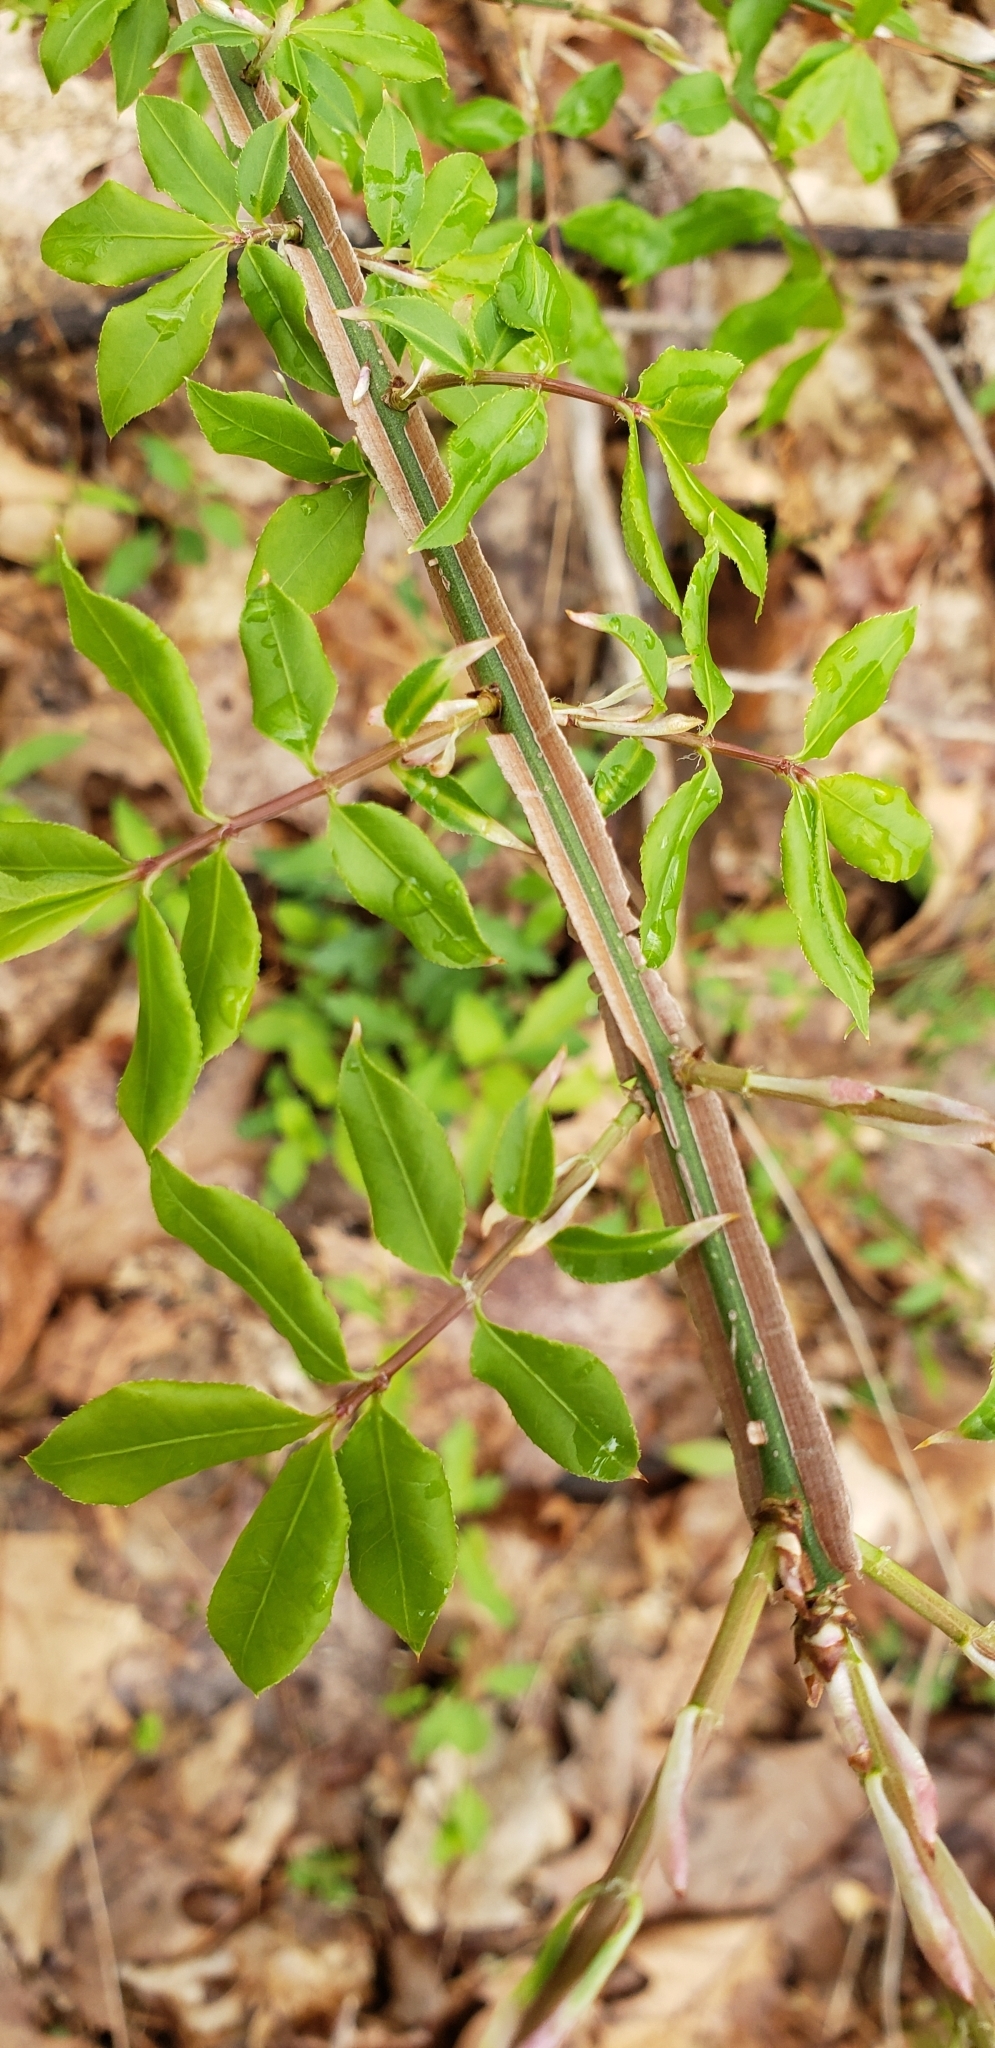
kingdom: Plantae
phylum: Tracheophyta
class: Magnoliopsida
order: Celastrales
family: Celastraceae
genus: Euonymus
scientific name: Euonymus alatus
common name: Winged euonymus
